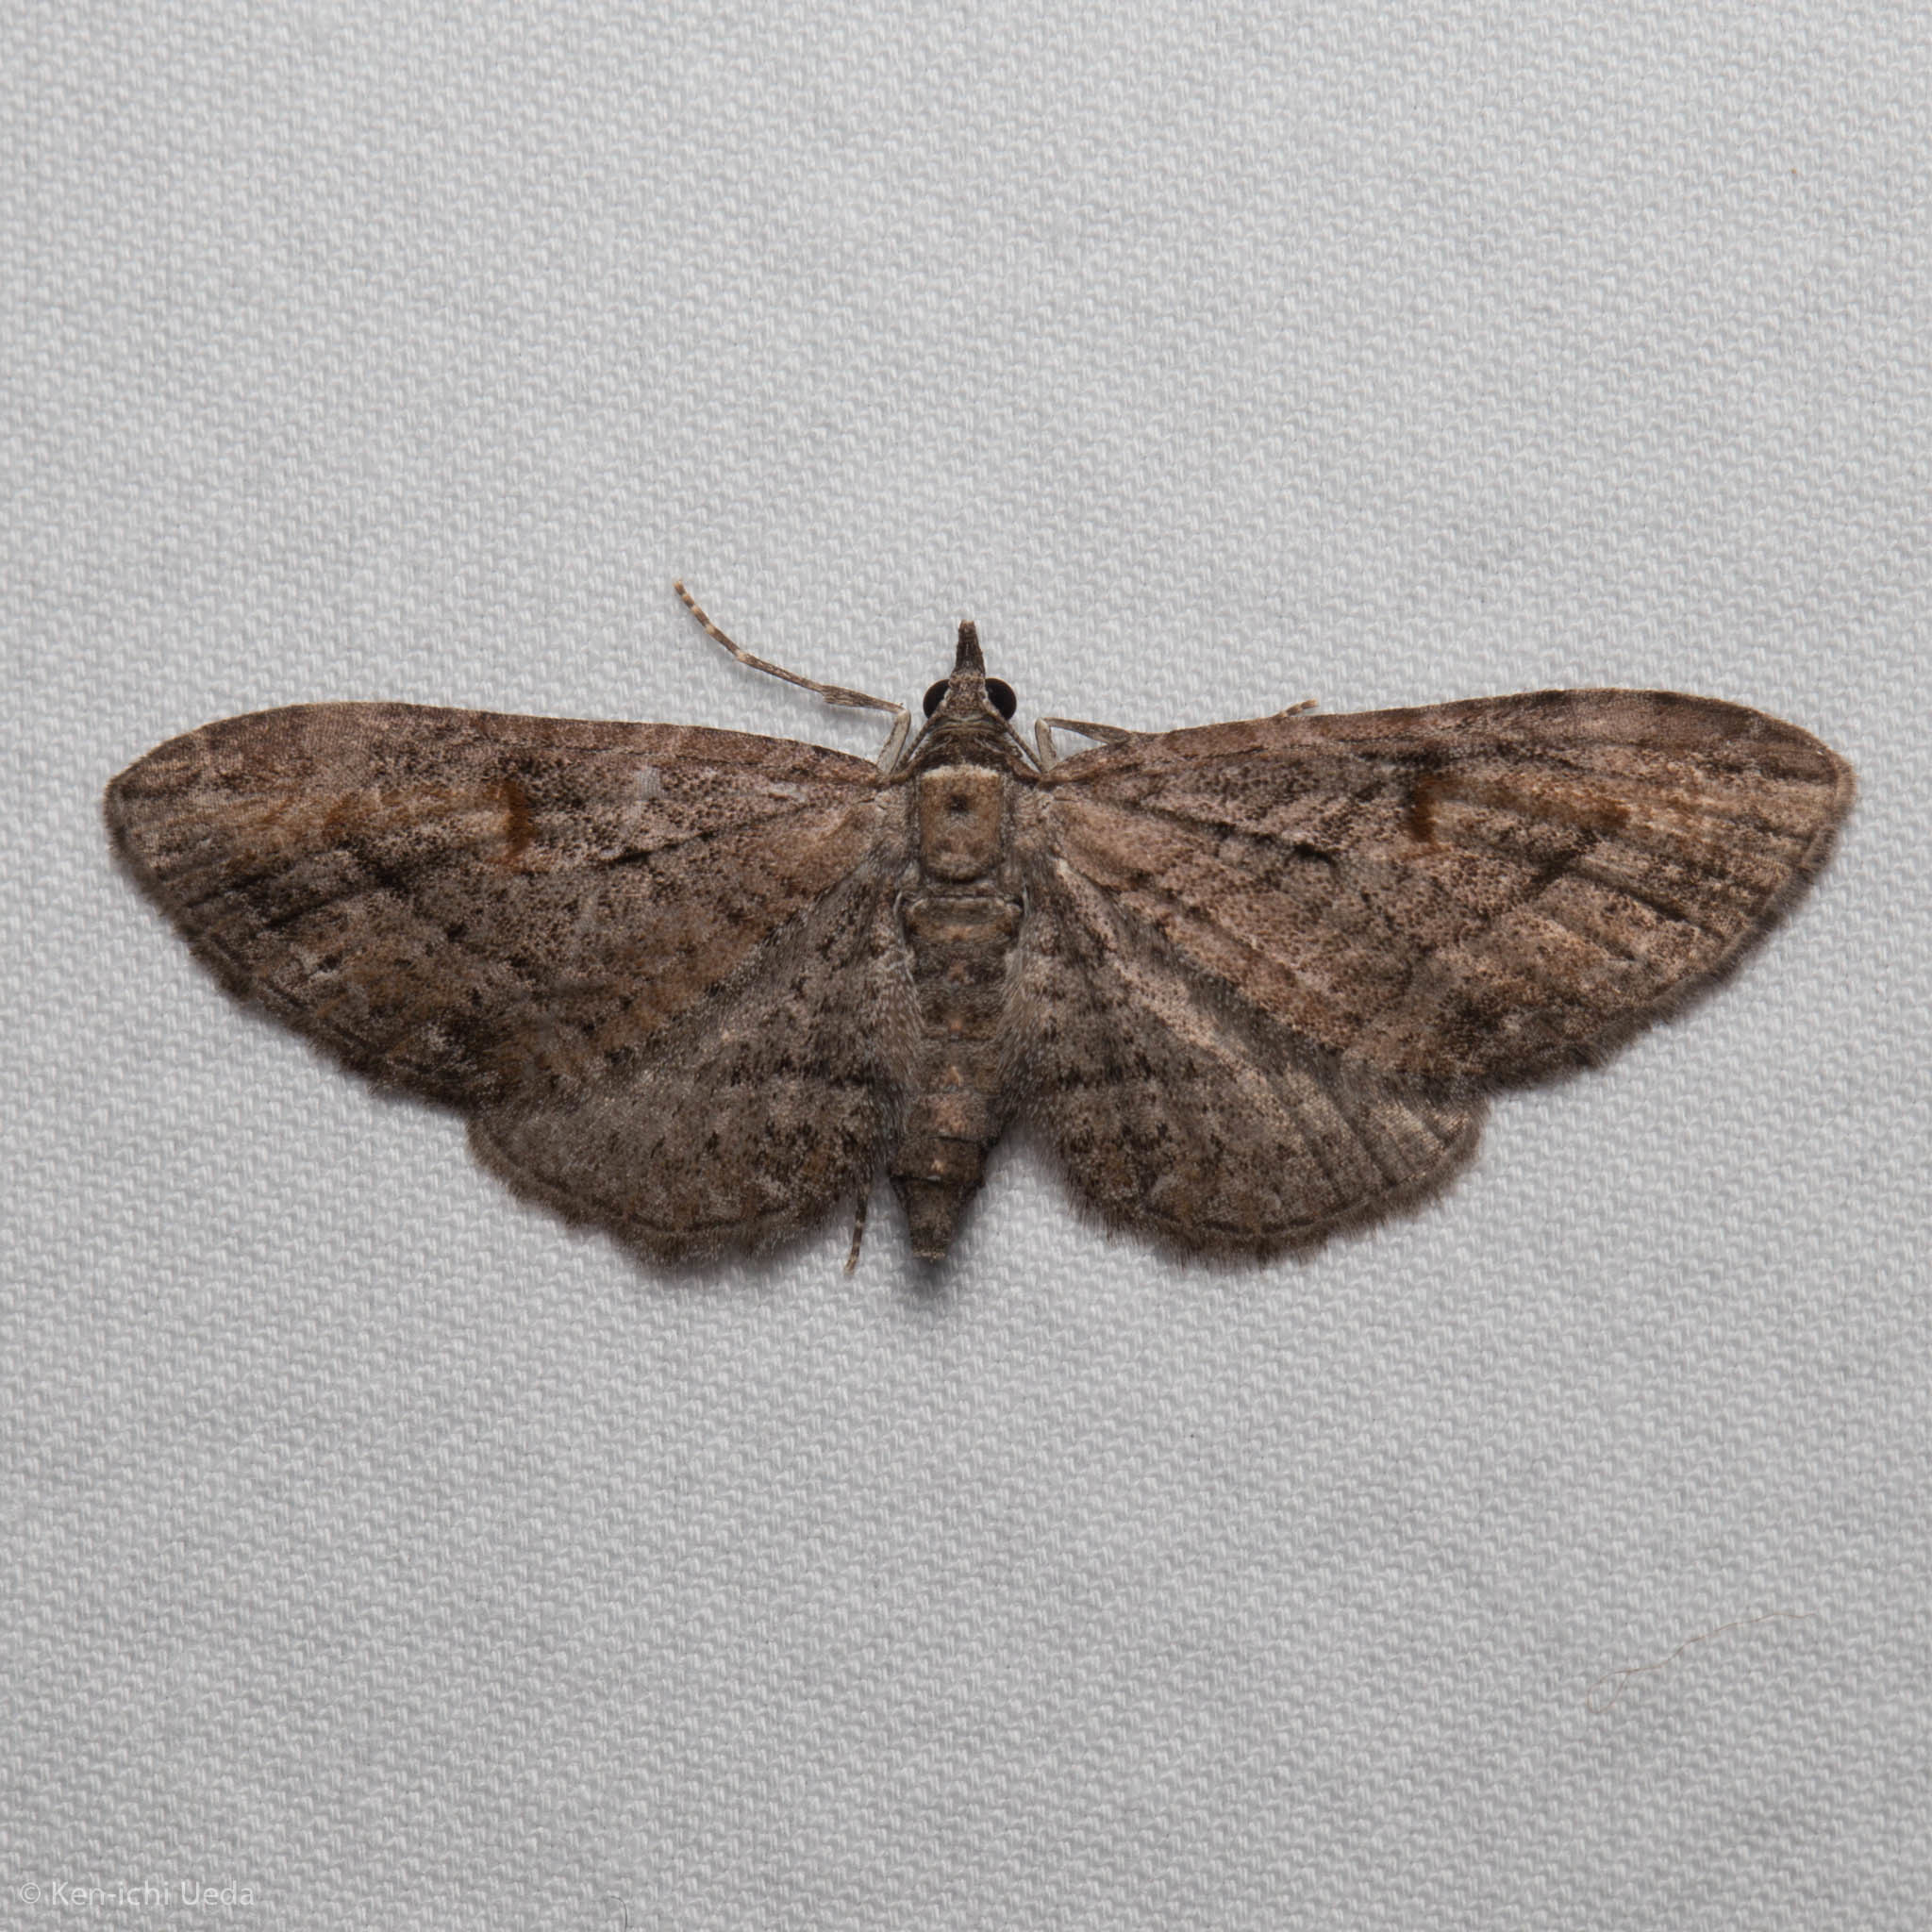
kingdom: Animalia
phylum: Arthropoda
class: Insecta
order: Lepidoptera
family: Geometridae
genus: Eupithecia
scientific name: Eupithecia graefii
